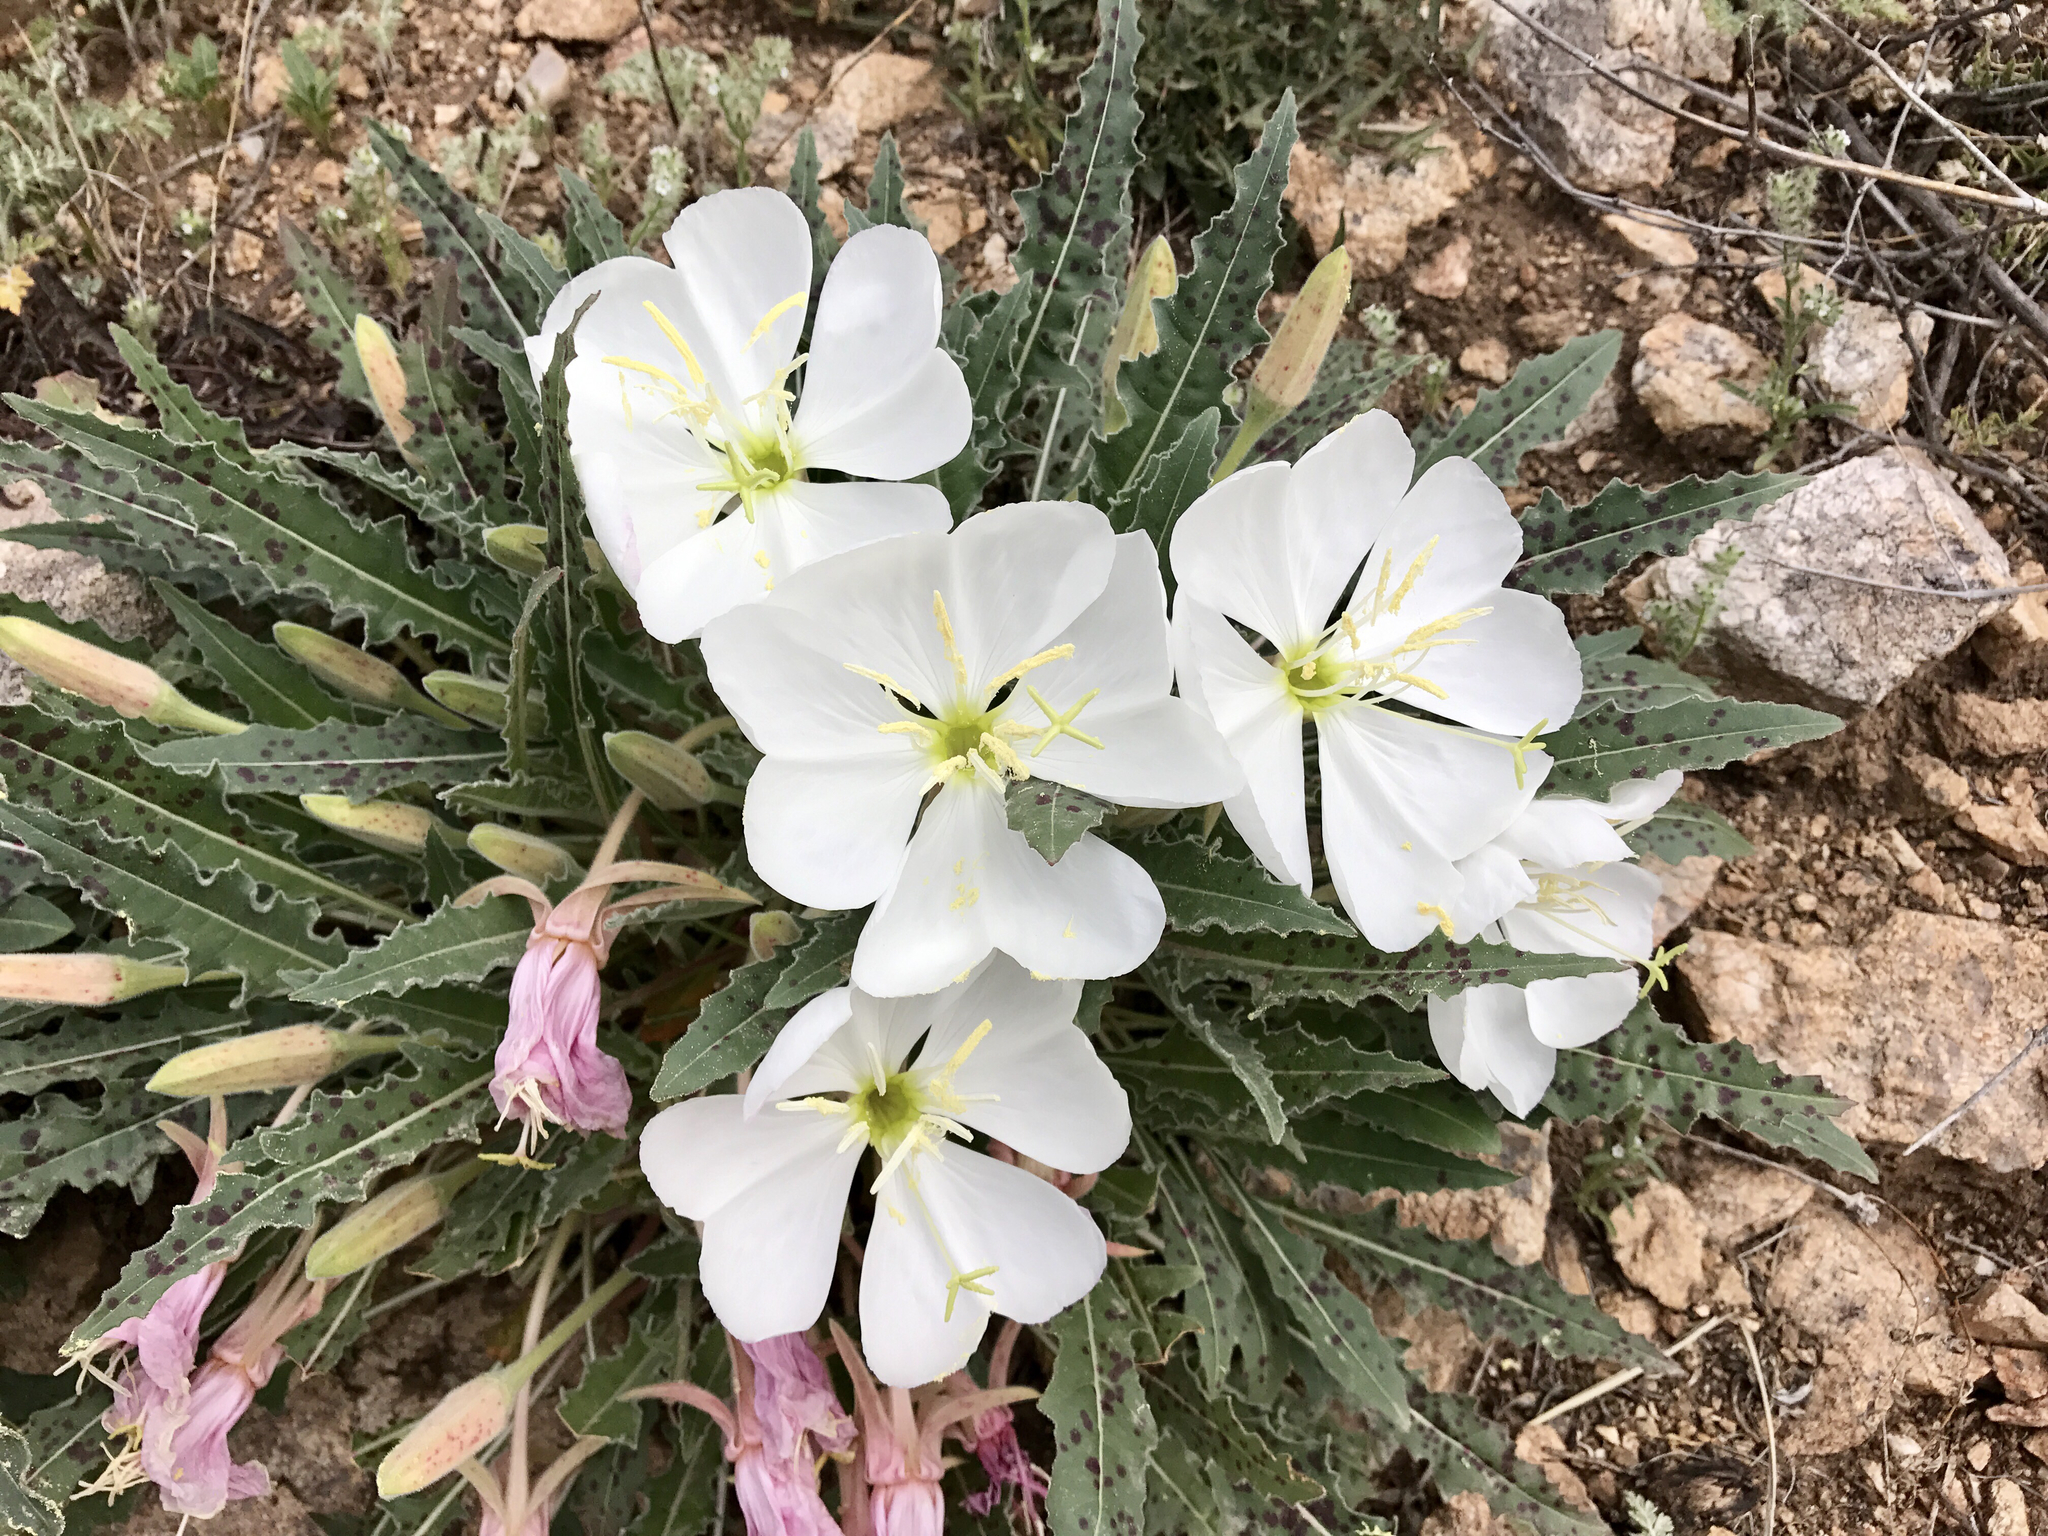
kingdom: Plantae
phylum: Tracheophyta
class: Magnoliopsida
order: Myrtales
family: Onagraceae
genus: Oenothera
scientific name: Oenothera cespitosa
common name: Tufted evening-primrose
